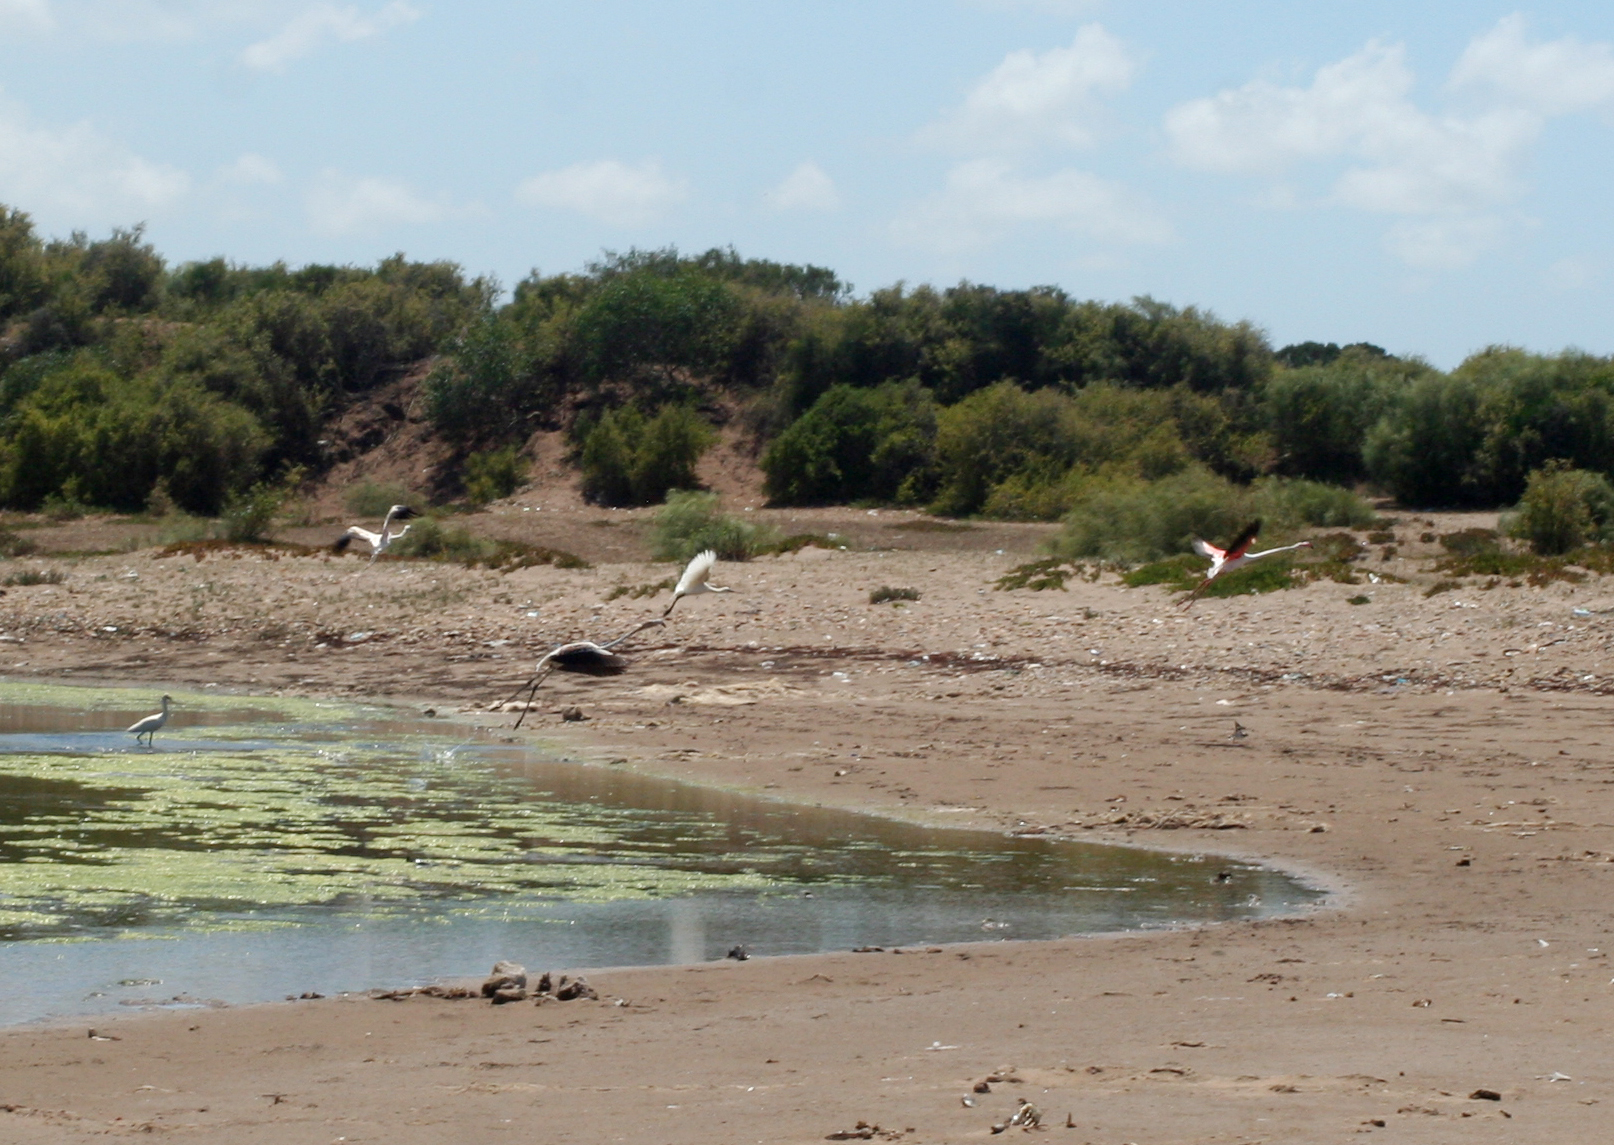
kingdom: Animalia
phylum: Chordata
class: Aves
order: Phoenicopteriformes
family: Phoenicopteridae
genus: Phoenicopterus
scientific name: Phoenicopterus roseus
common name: Greater flamingo
